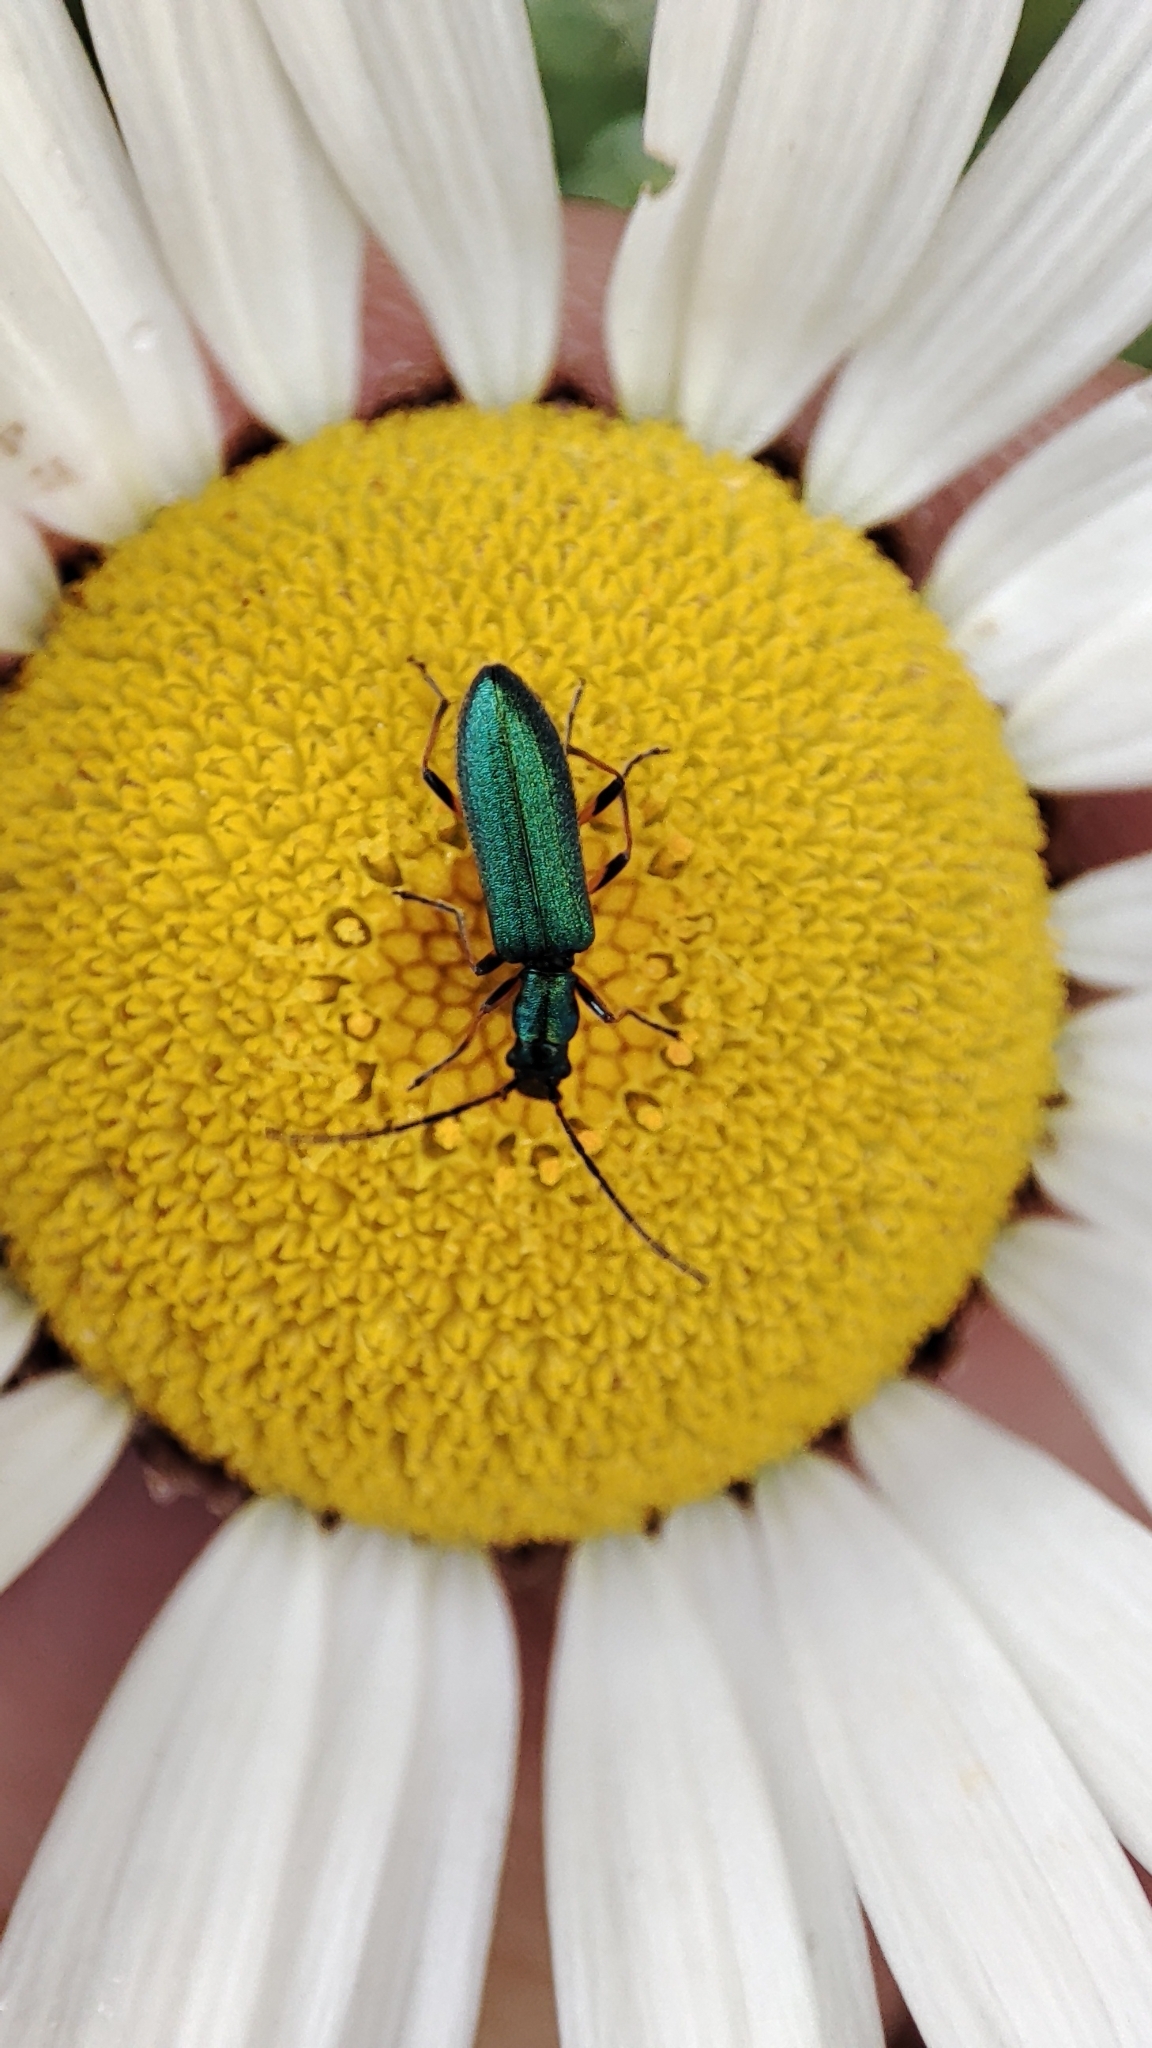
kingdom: Animalia
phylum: Arthropoda
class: Insecta
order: Coleoptera
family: Oedemeridae
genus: Chrysanthia
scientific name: Chrysanthia geniculata
